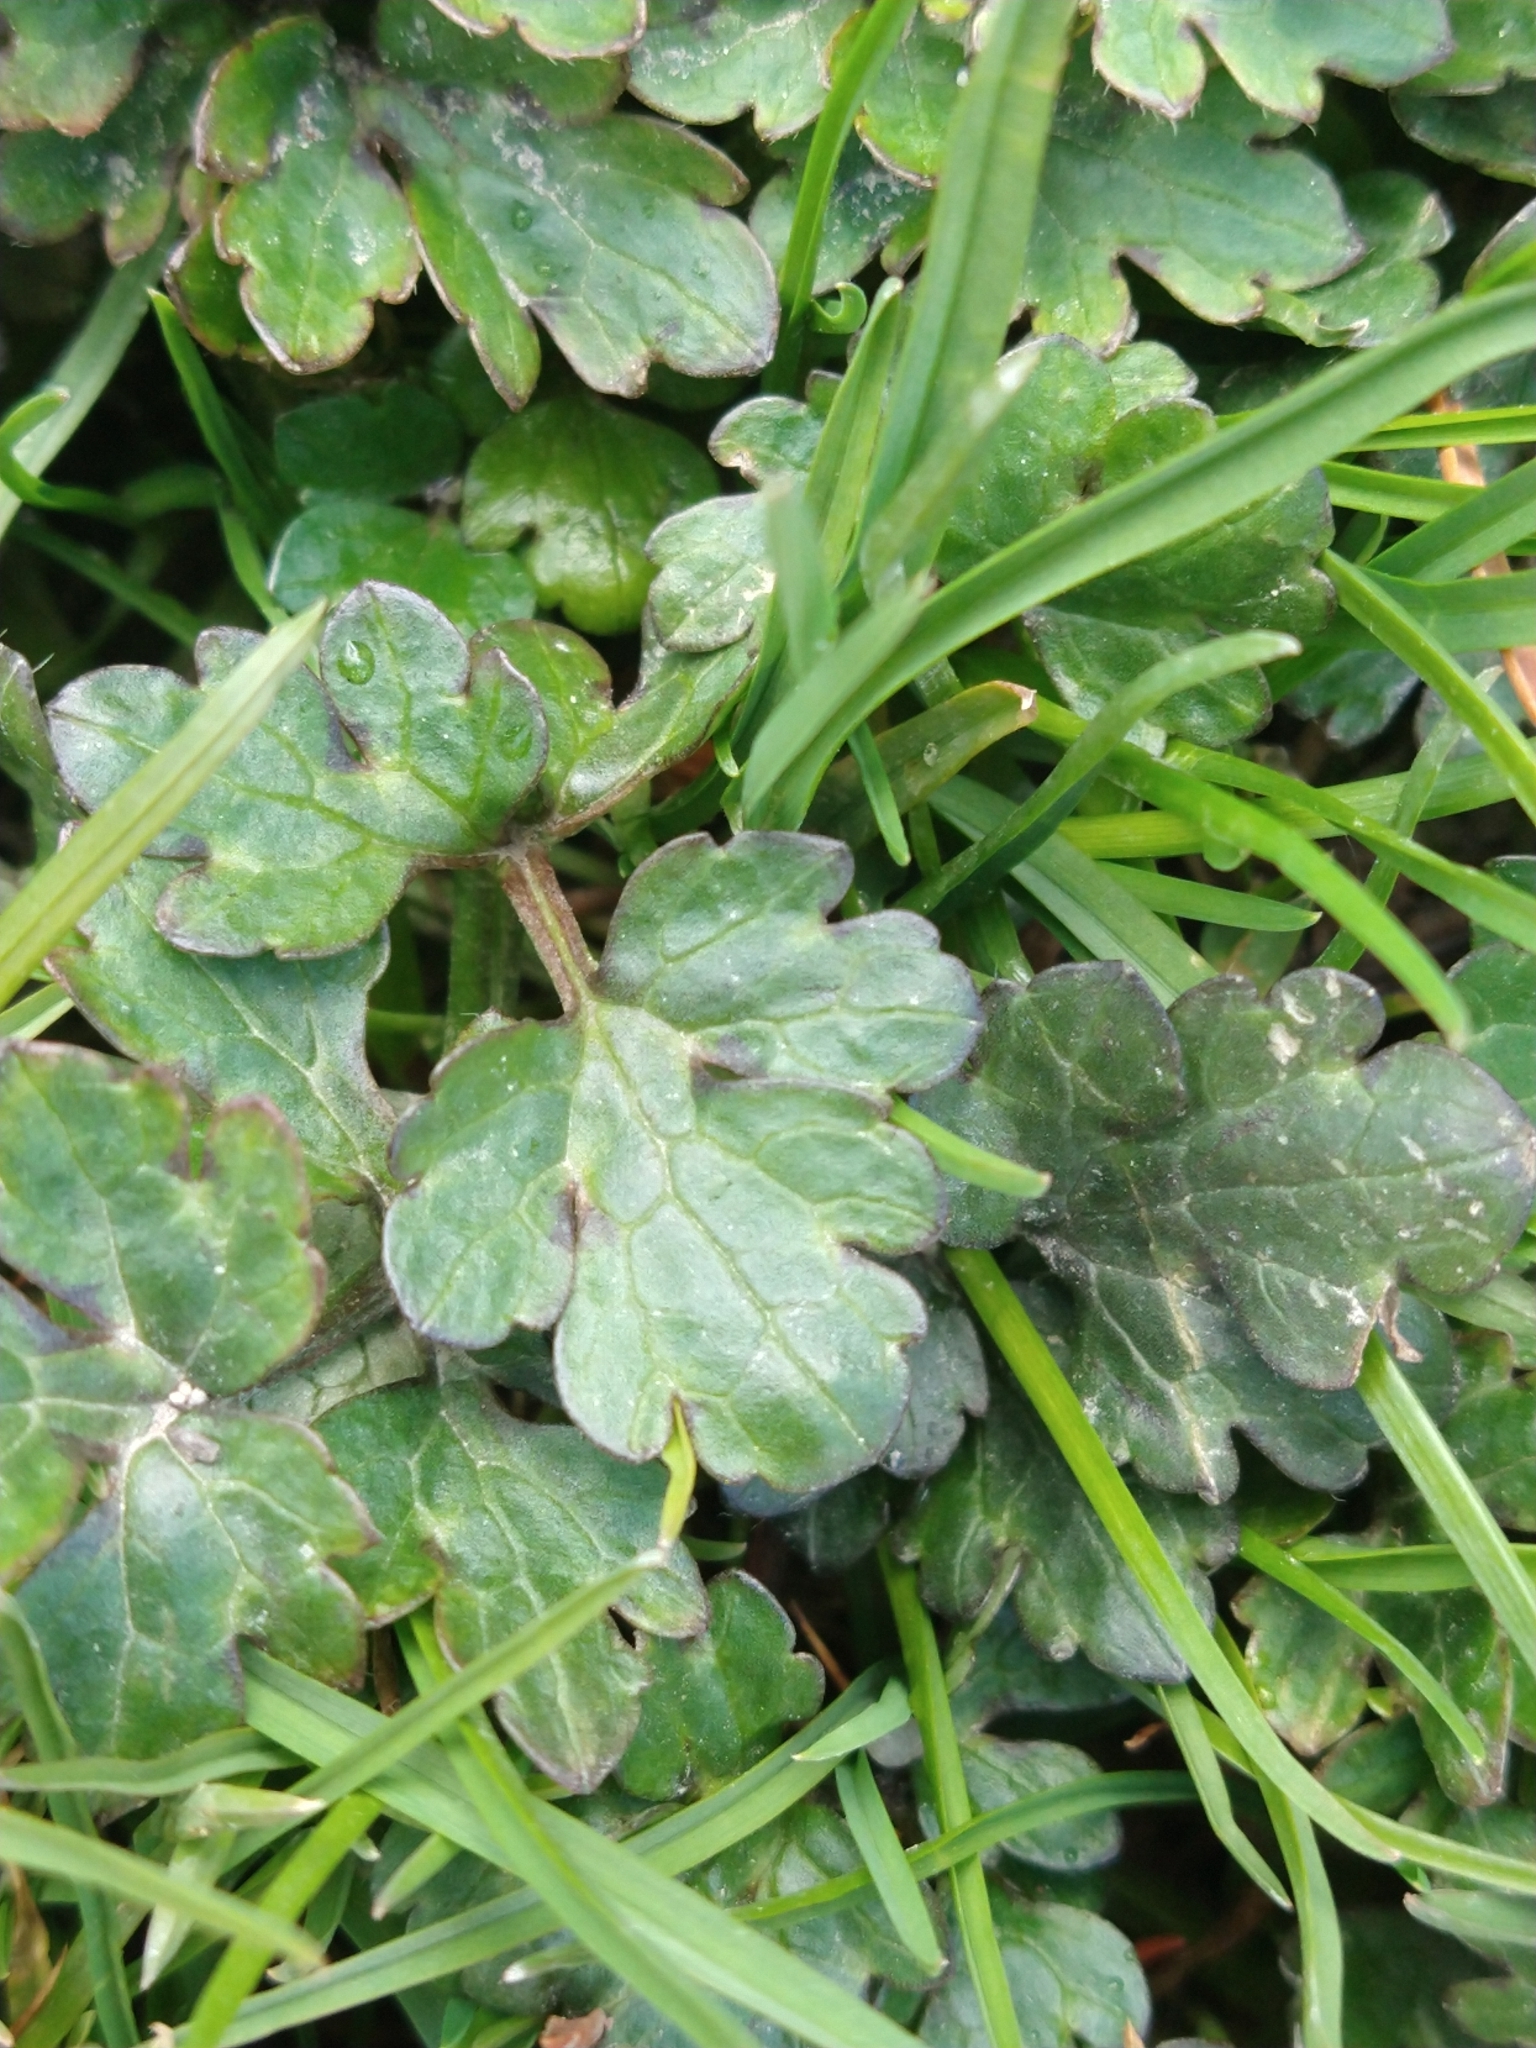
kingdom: Plantae
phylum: Tracheophyta
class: Magnoliopsida
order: Ranunculales
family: Ranunculaceae
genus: Ranunculus
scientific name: Ranunculus repens
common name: Creeping buttercup
